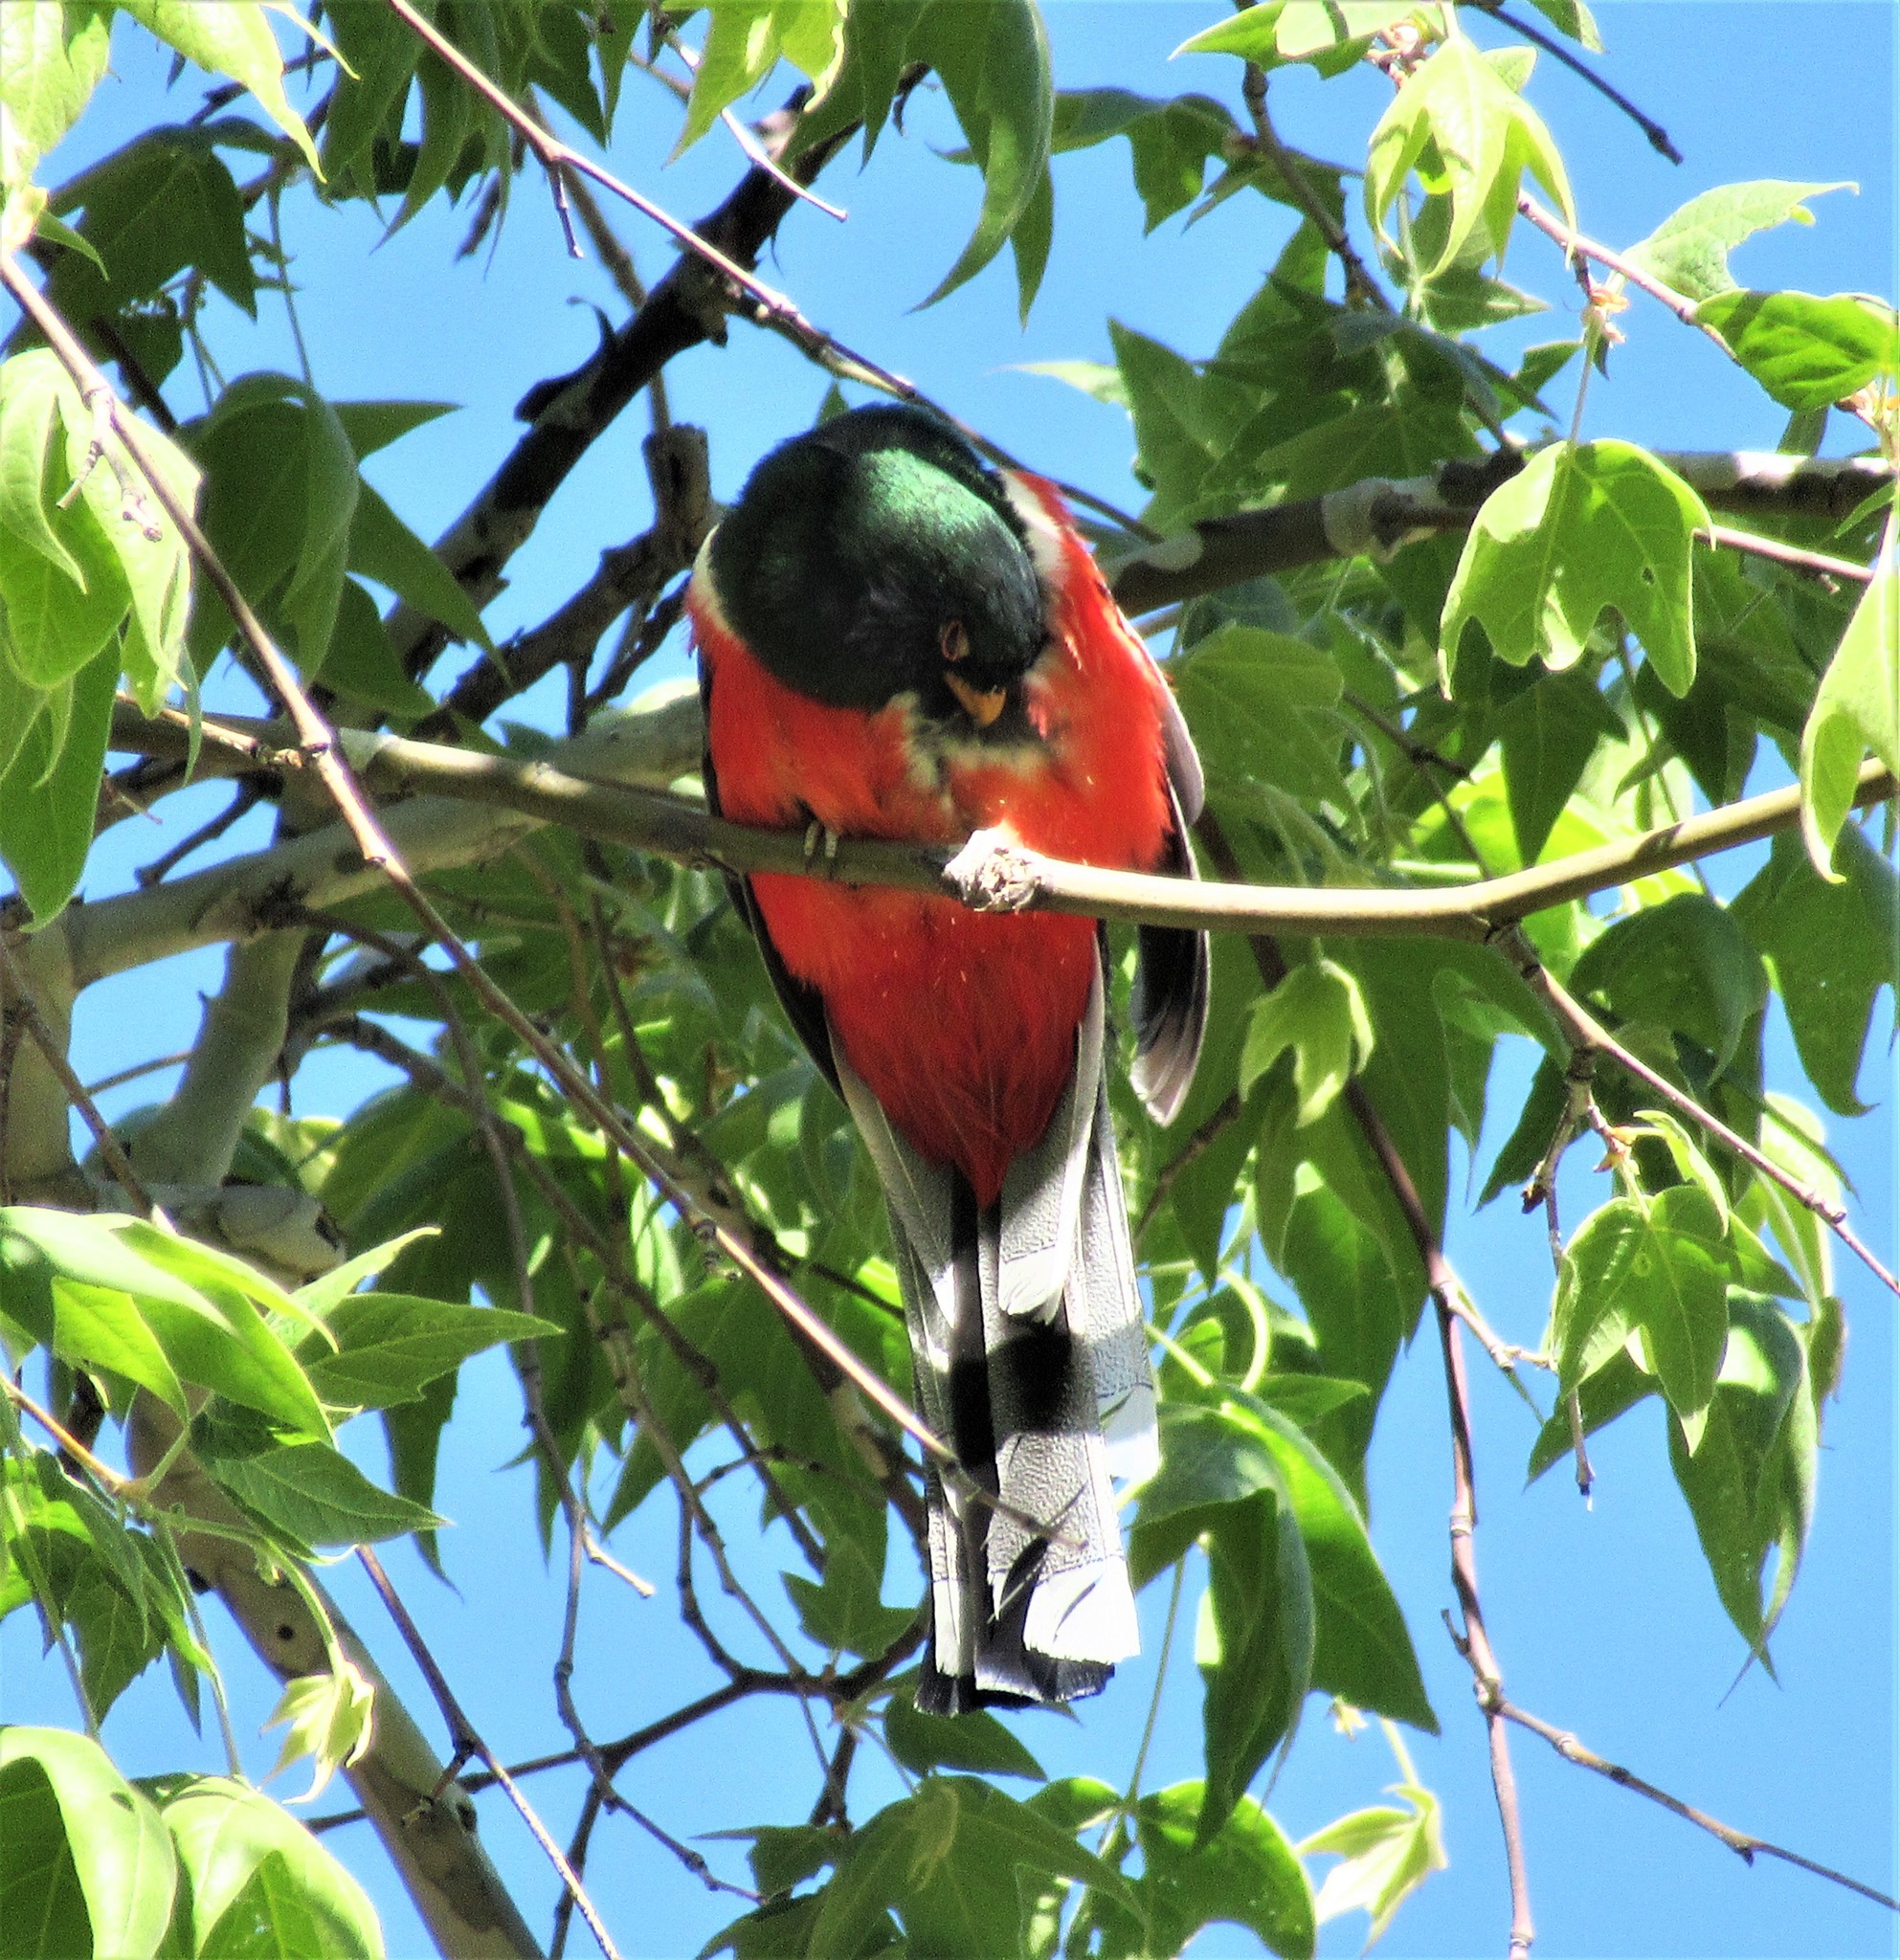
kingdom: Animalia
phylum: Chordata
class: Aves
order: Trogoniformes
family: Trogonidae
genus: Trogon
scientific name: Trogon elegans
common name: Elegant trogon
